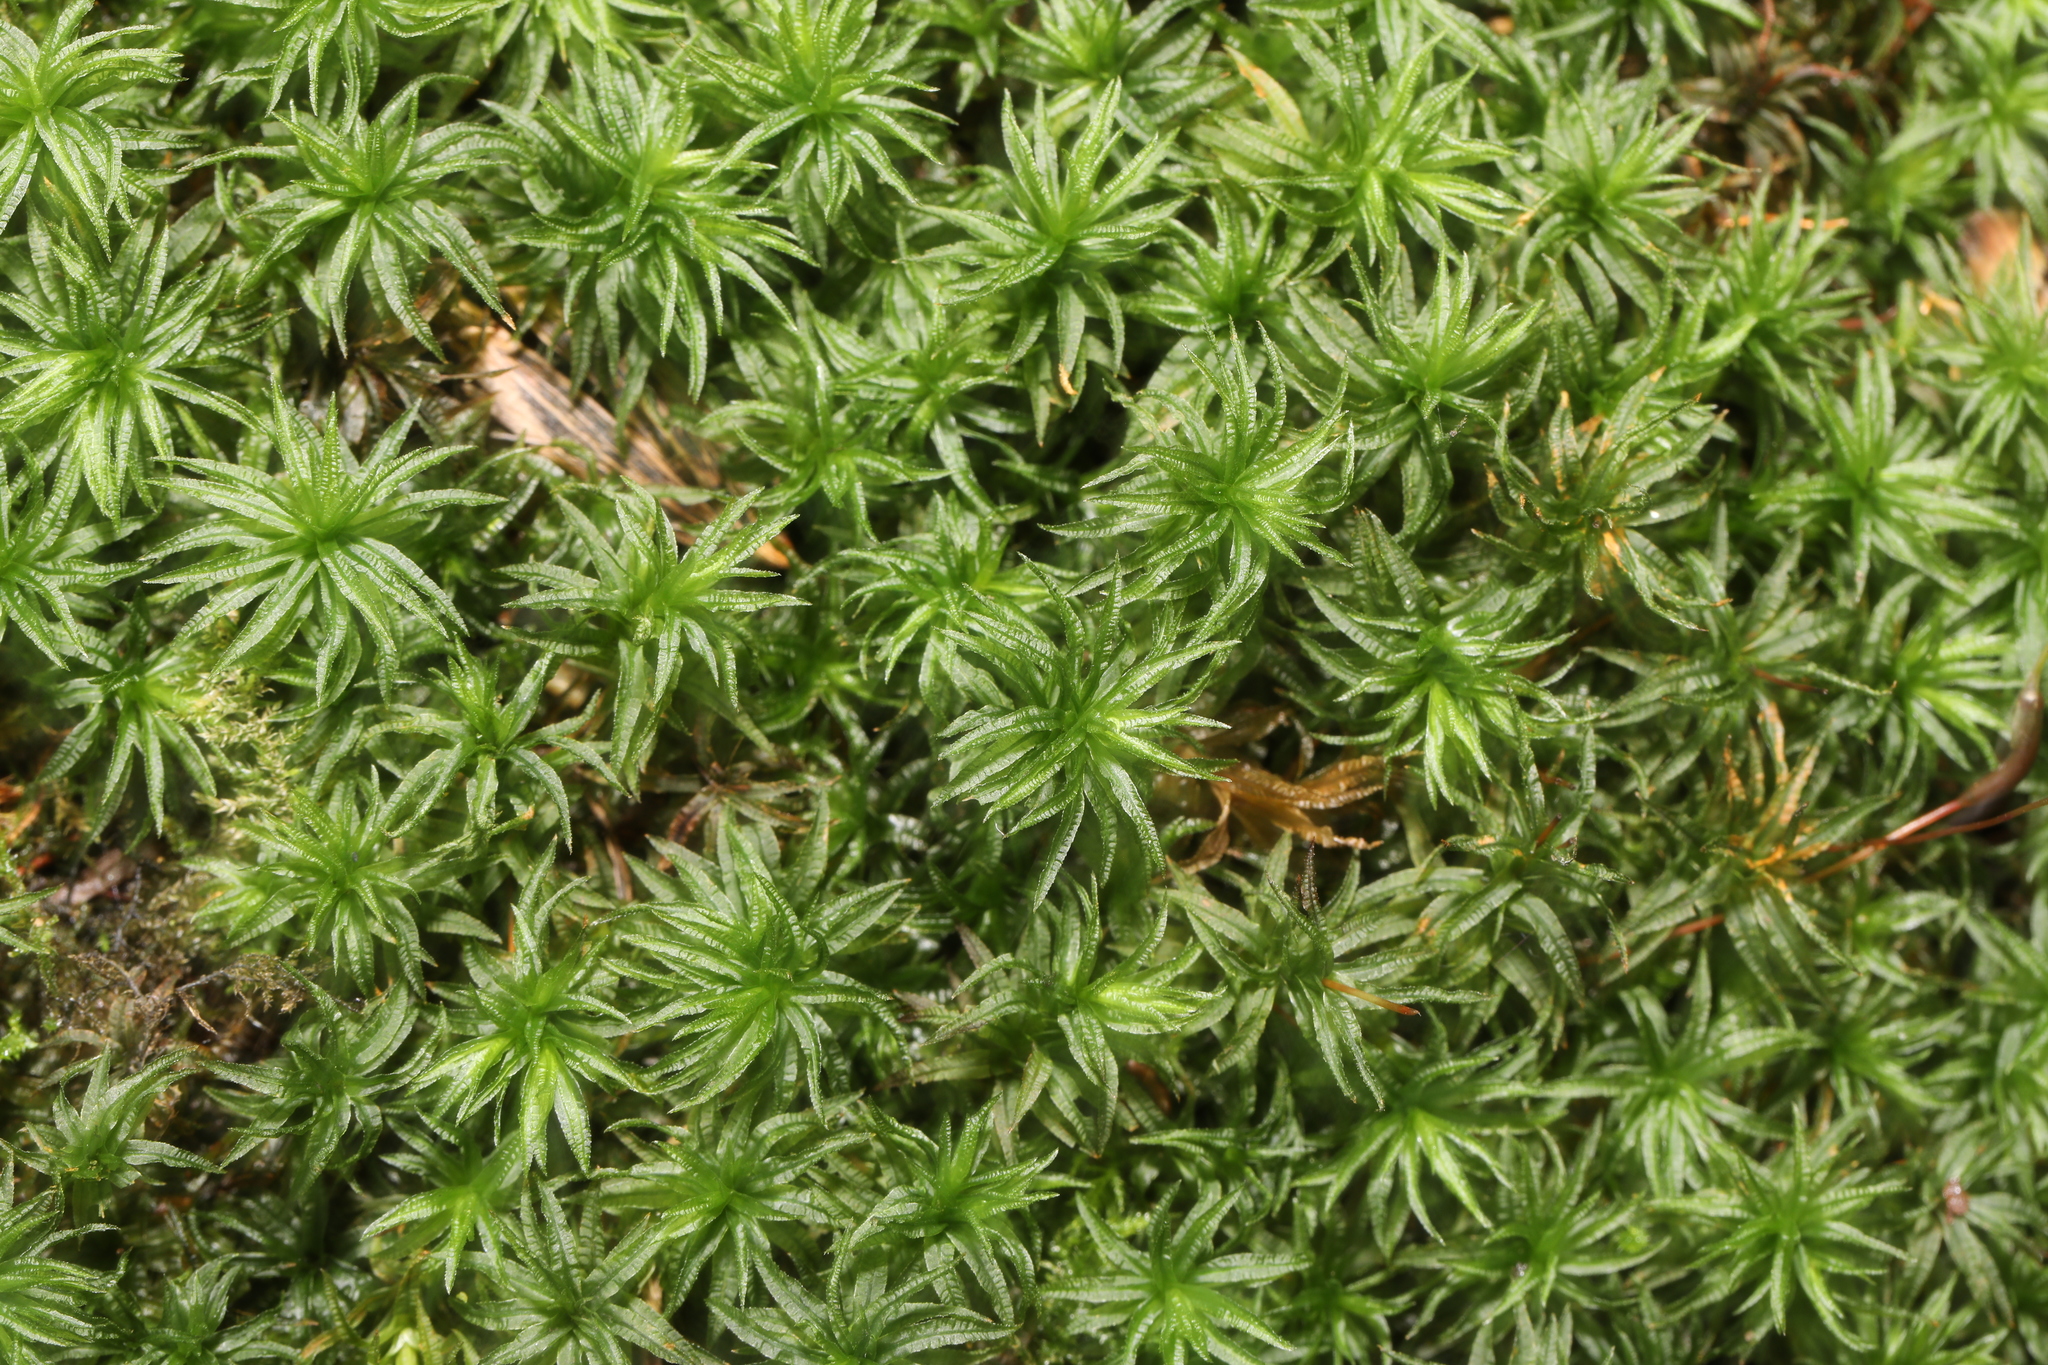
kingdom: Plantae
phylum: Bryophyta
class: Polytrichopsida
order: Polytrichales
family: Polytrichaceae
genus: Atrichum
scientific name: Atrichum undulatum
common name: Common smoothcap
